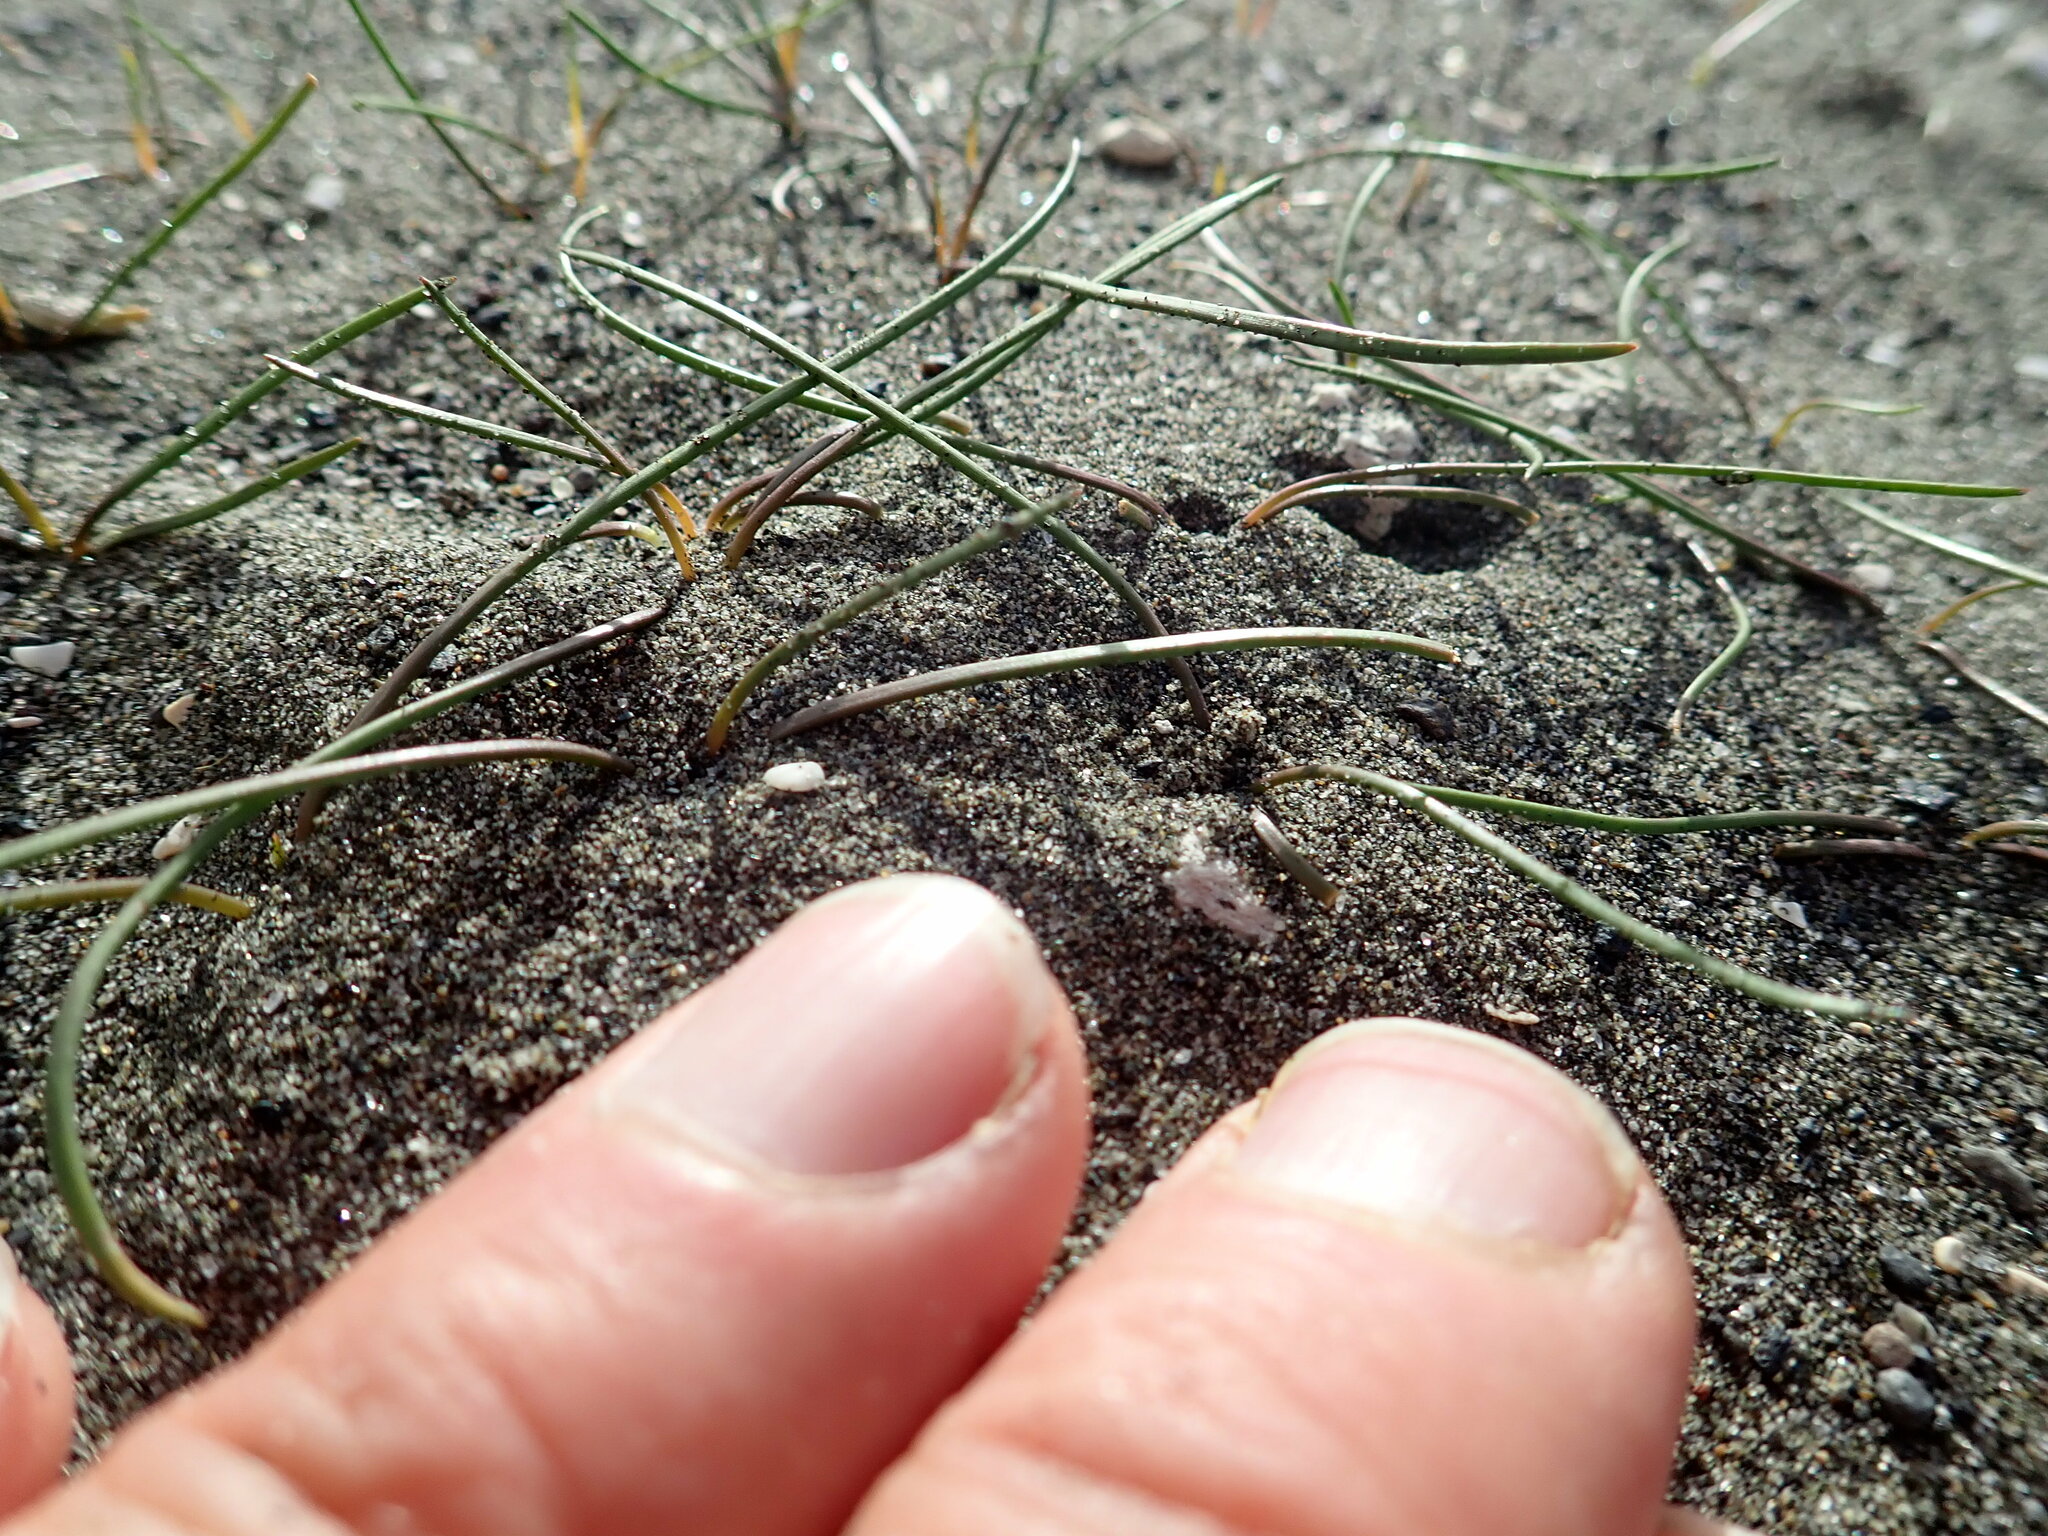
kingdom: Plantae
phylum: Tracheophyta
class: Liliopsida
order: Alismatales
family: Juncaginaceae
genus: Triglochin
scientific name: Triglochin striata
